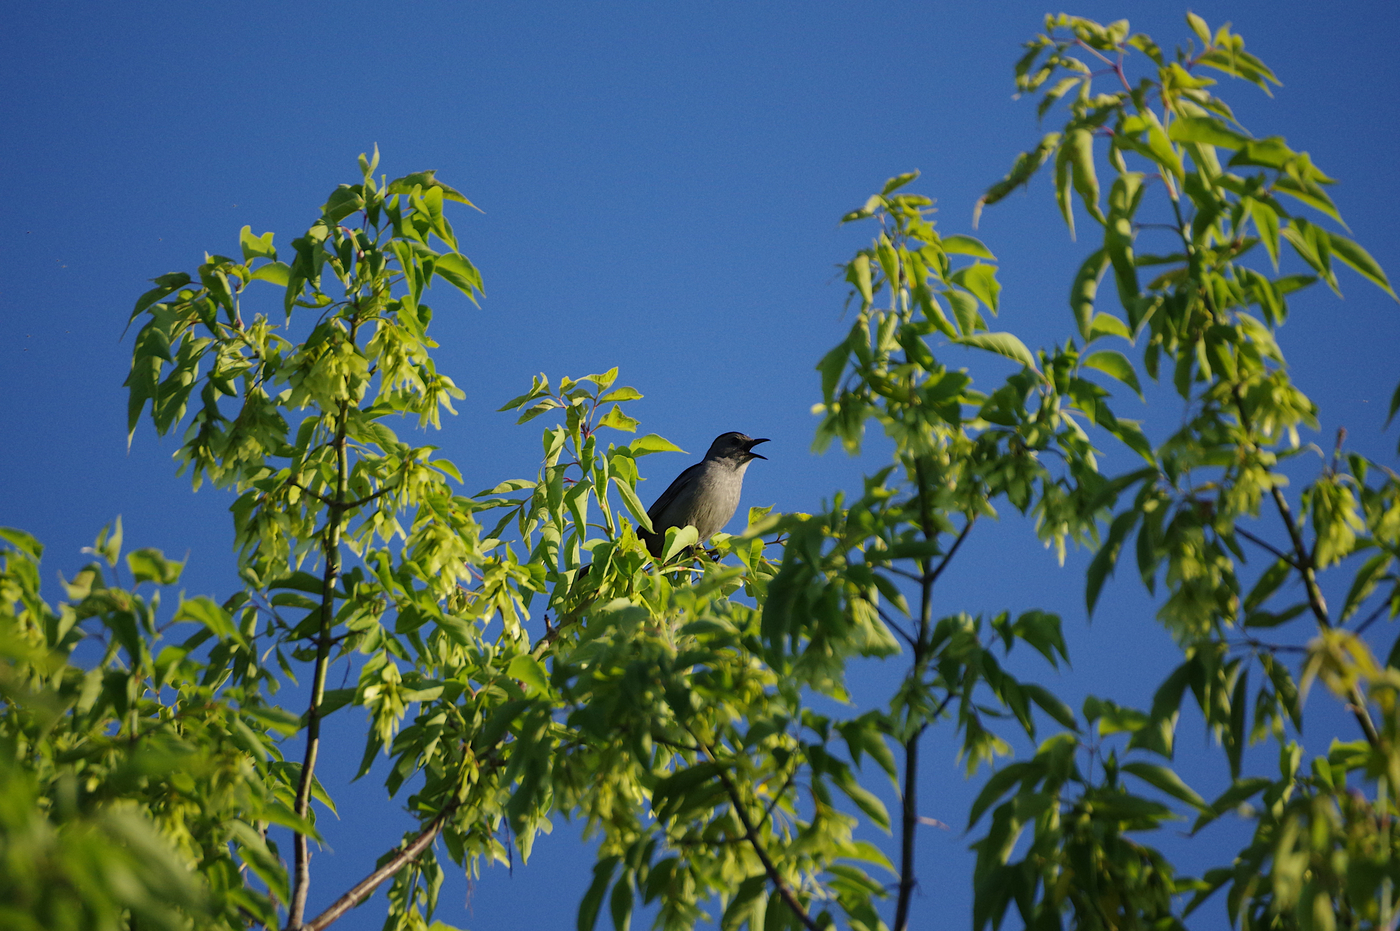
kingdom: Animalia
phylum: Chordata
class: Aves
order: Passeriformes
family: Mimidae
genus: Dumetella
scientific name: Dumetella carolinensis
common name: Gray catbird
